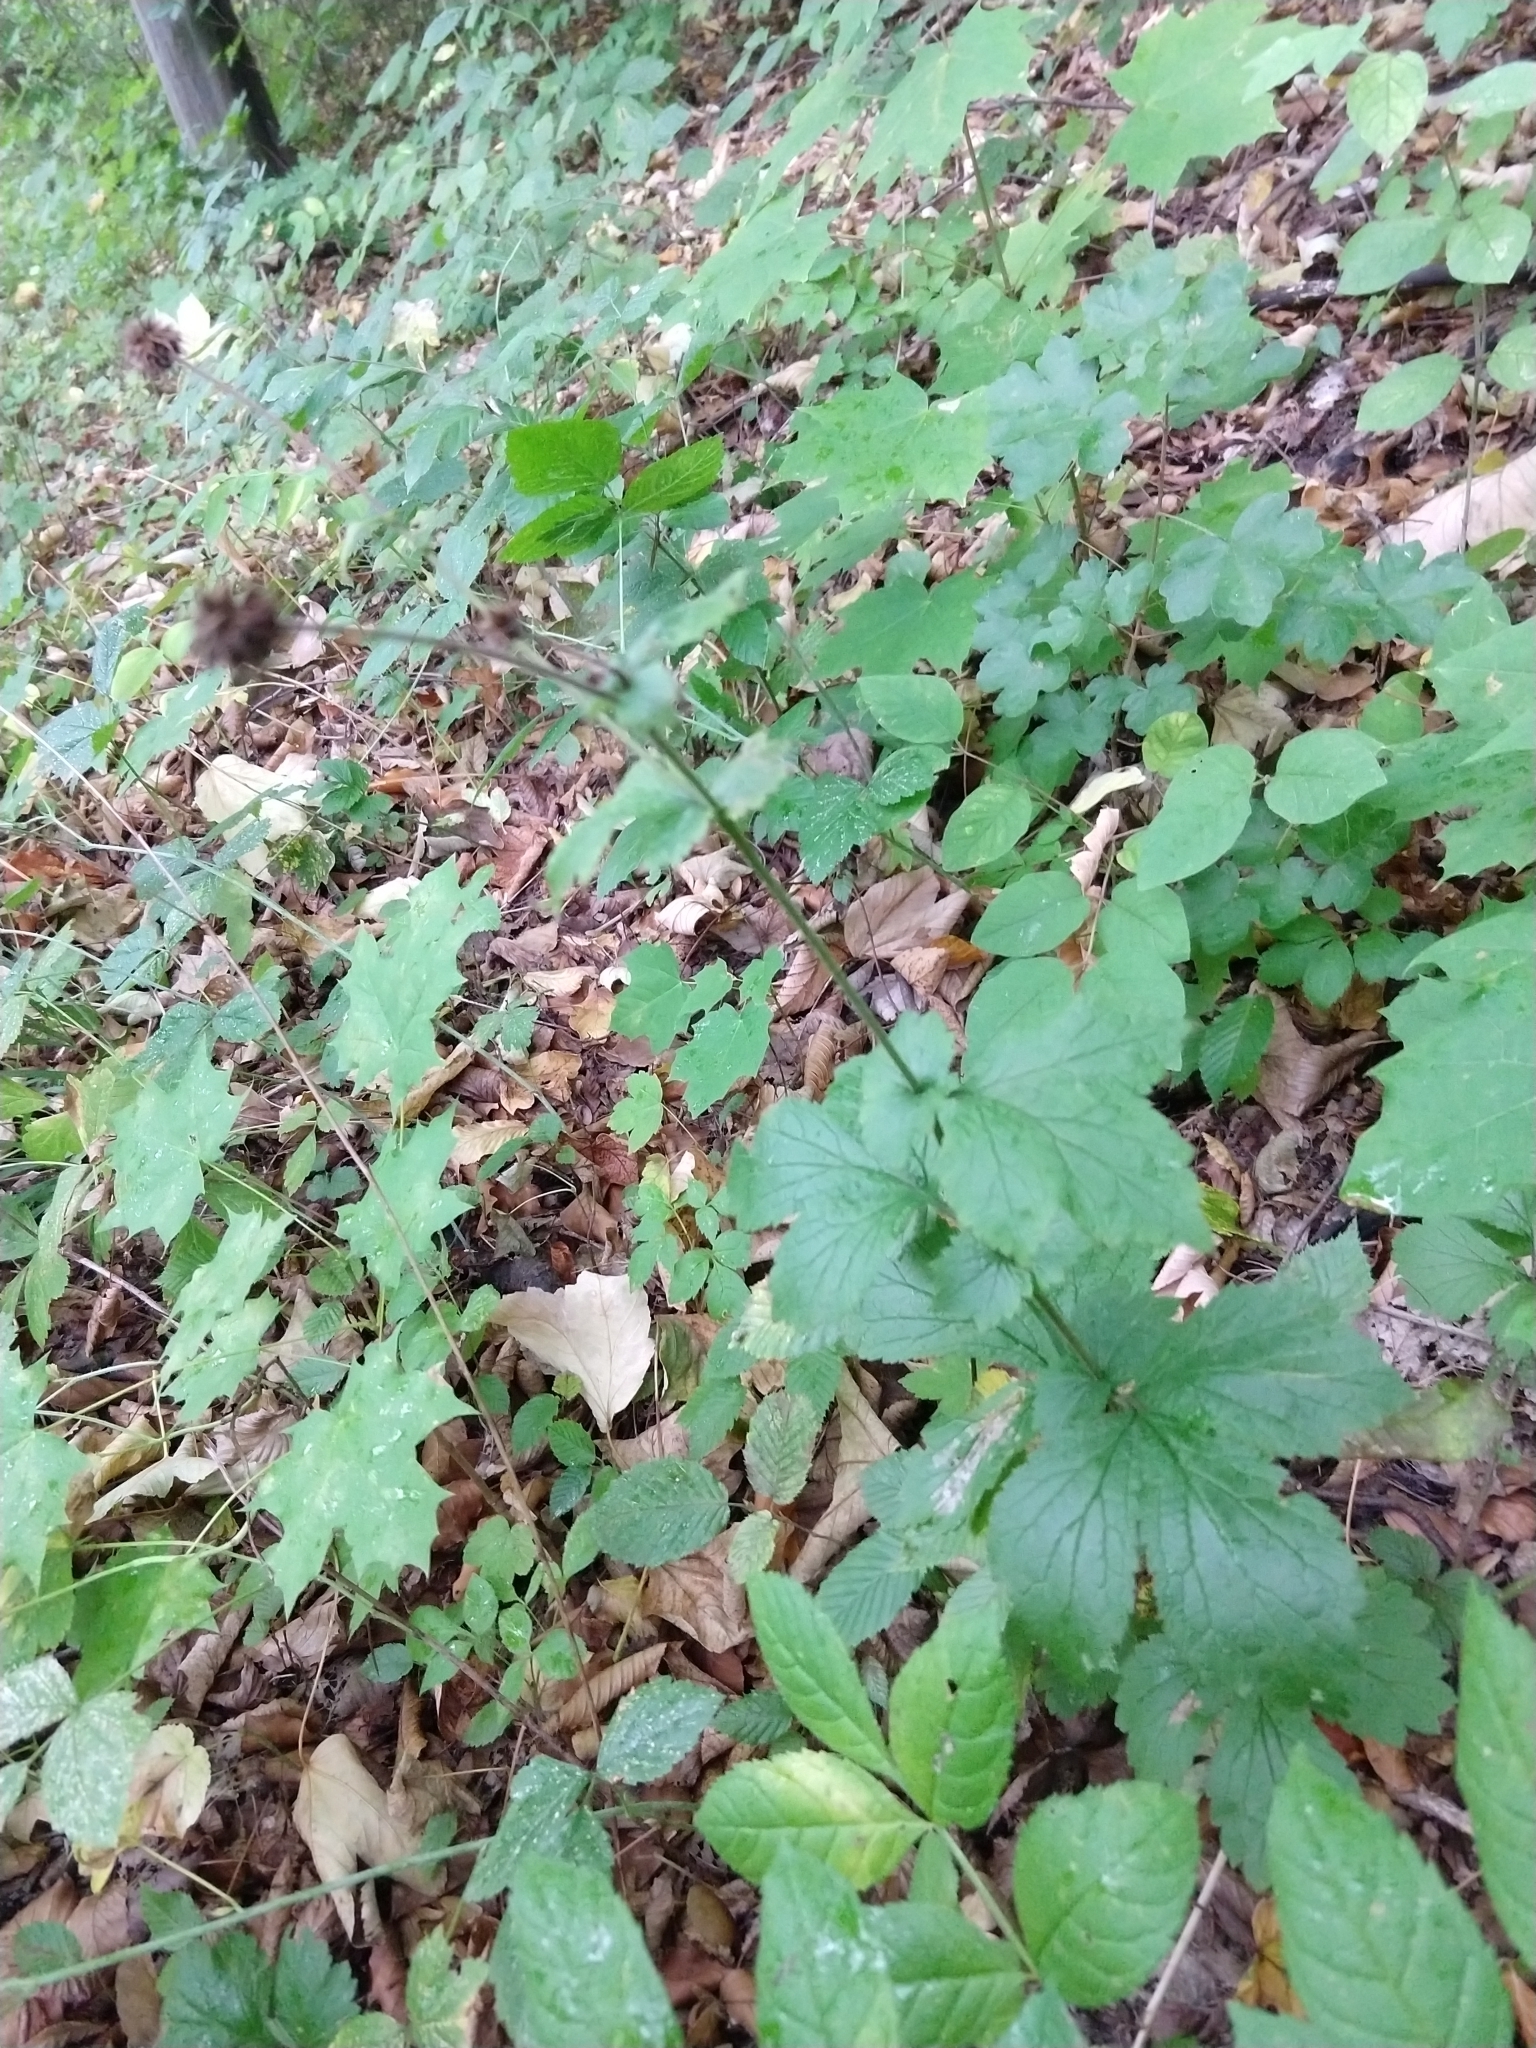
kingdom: Plantae
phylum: Tracheophyta
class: Magnoliopsida
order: Rosales
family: Rosaceae
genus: Geum
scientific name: Geum urbanum
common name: Wood avens
